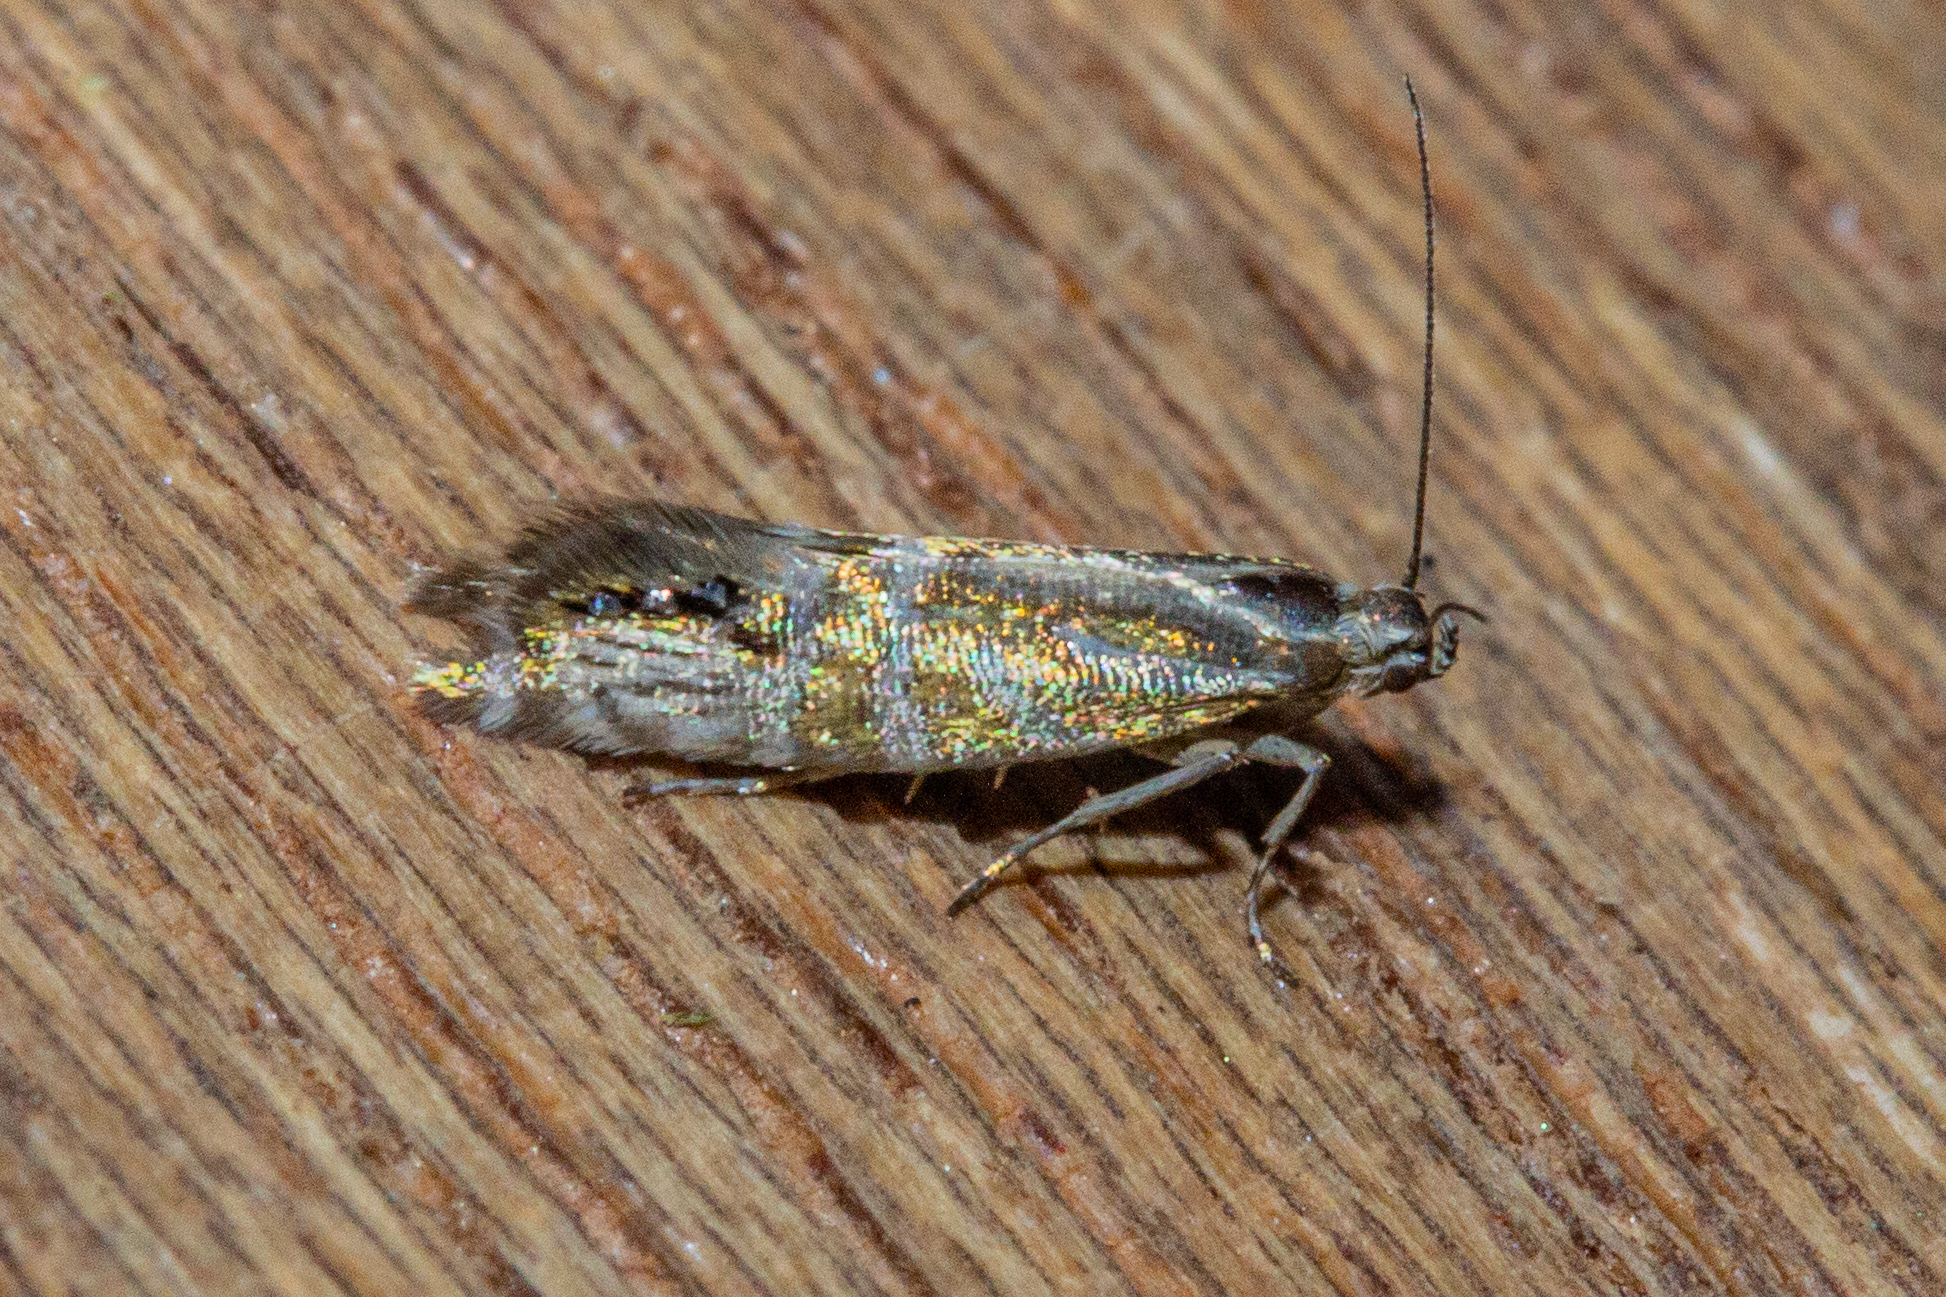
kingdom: Animalia
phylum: Arthropoda
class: Insecta
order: Lepidoptera
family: Glyphipterigidae
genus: Glyphipterix
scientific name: Glyphipterix triselena
